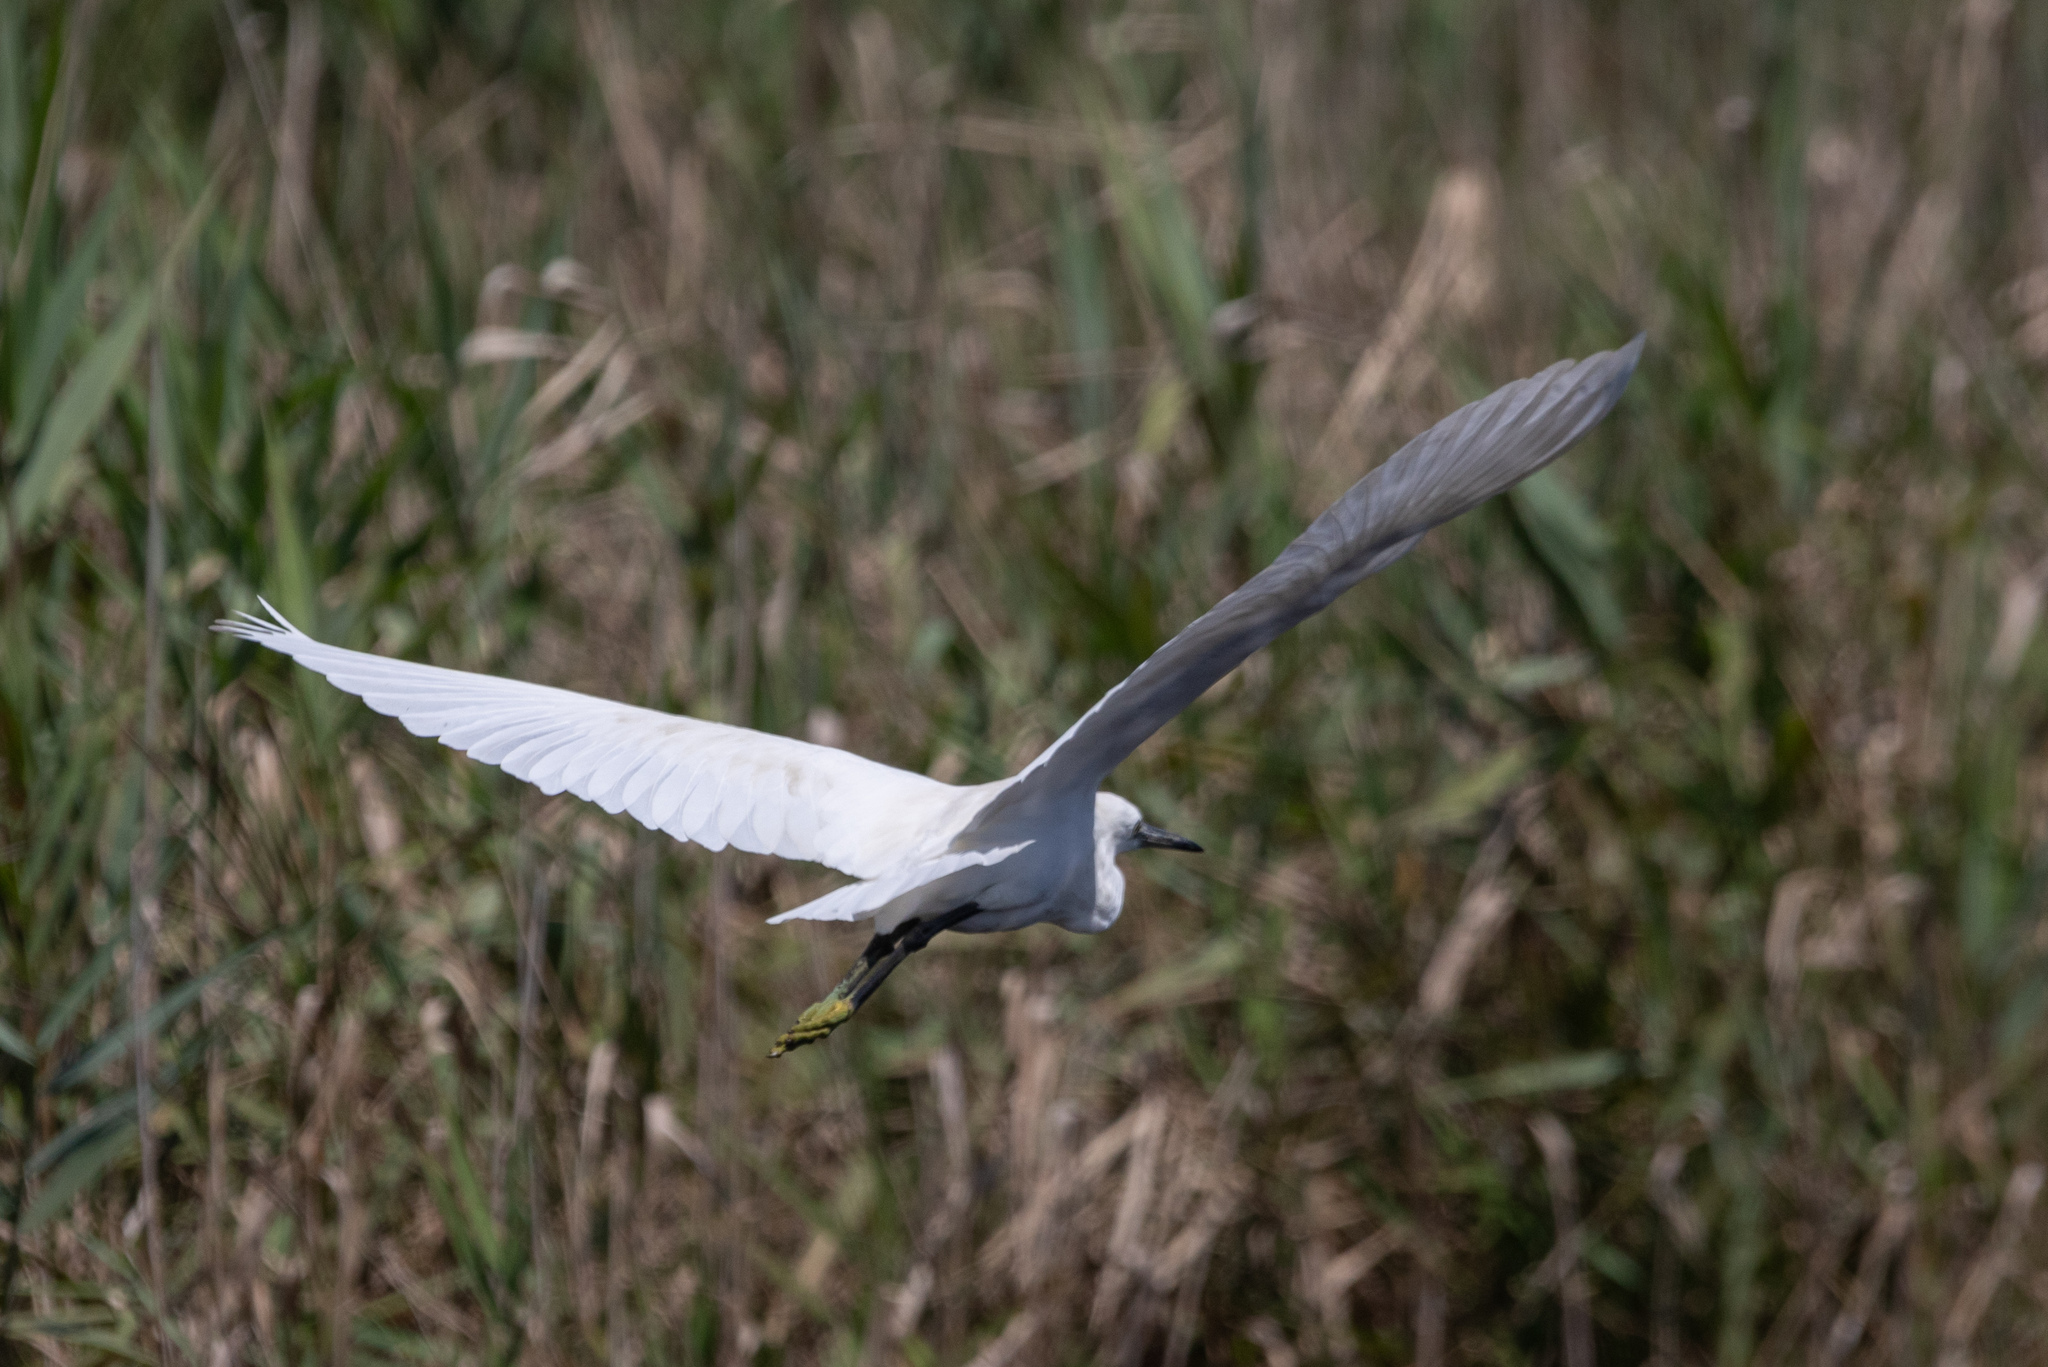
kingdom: Animalia
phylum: Chordata
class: Aves
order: Pelecaniformes
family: Ardeidae
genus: Egretta
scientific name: Egretta garzetta
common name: Little egret
